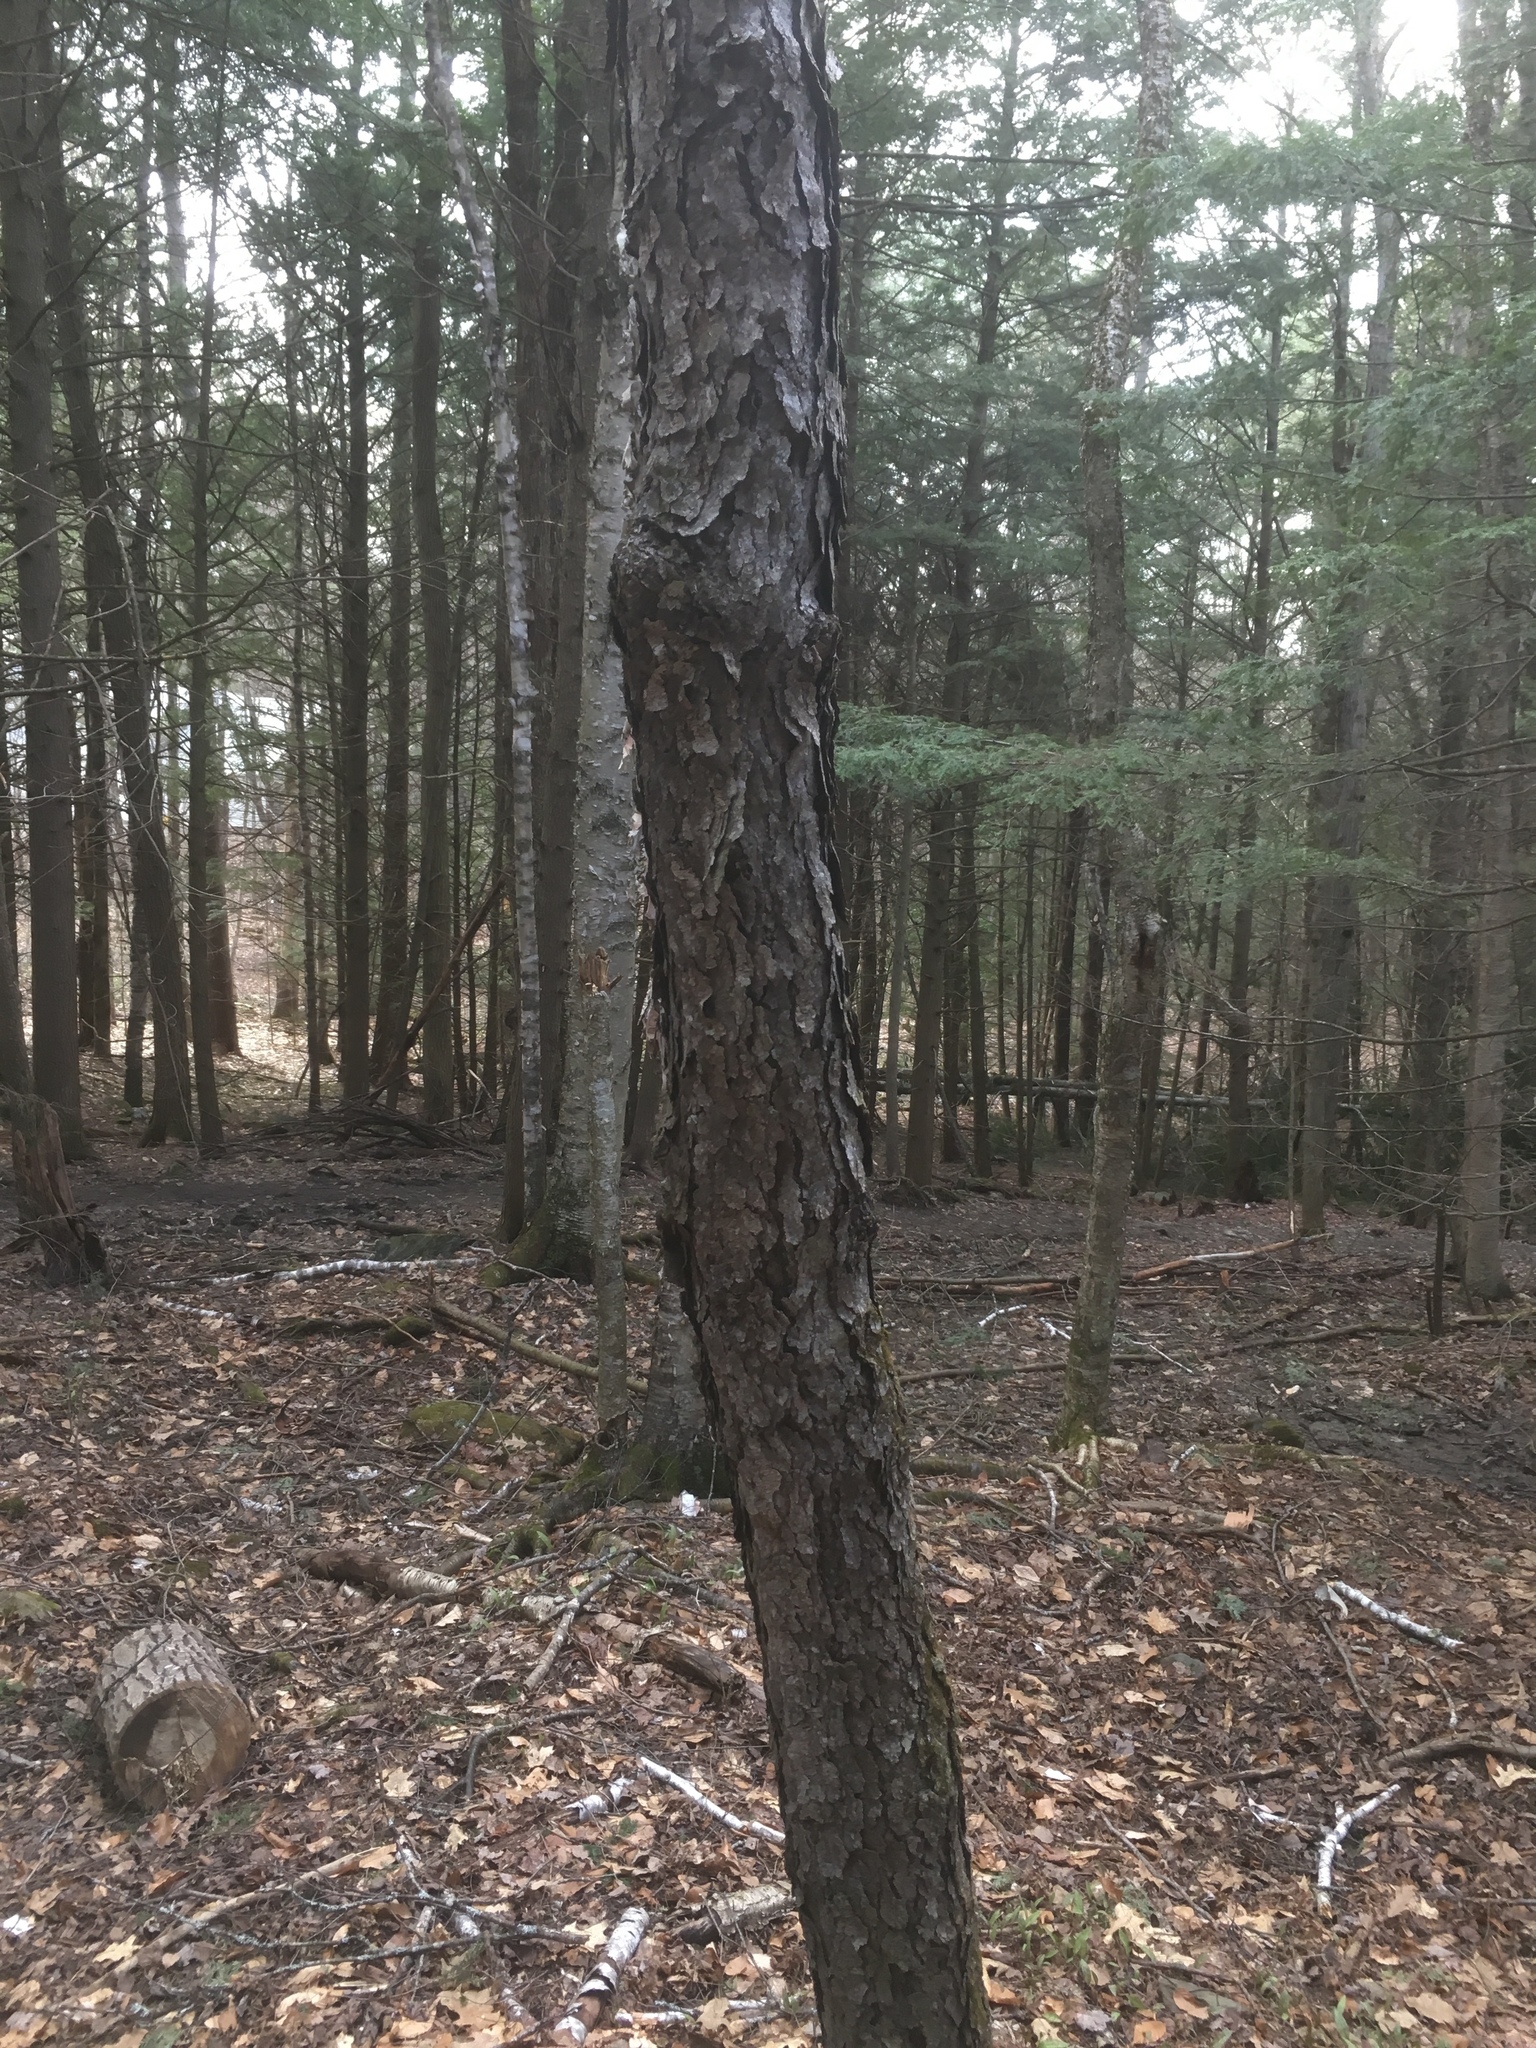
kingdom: Plantae
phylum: Tracheophyta
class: Magnoliopsida
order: Rosales
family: Rosaceae
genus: Prunus
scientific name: Prunus serotina
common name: Black cherry
